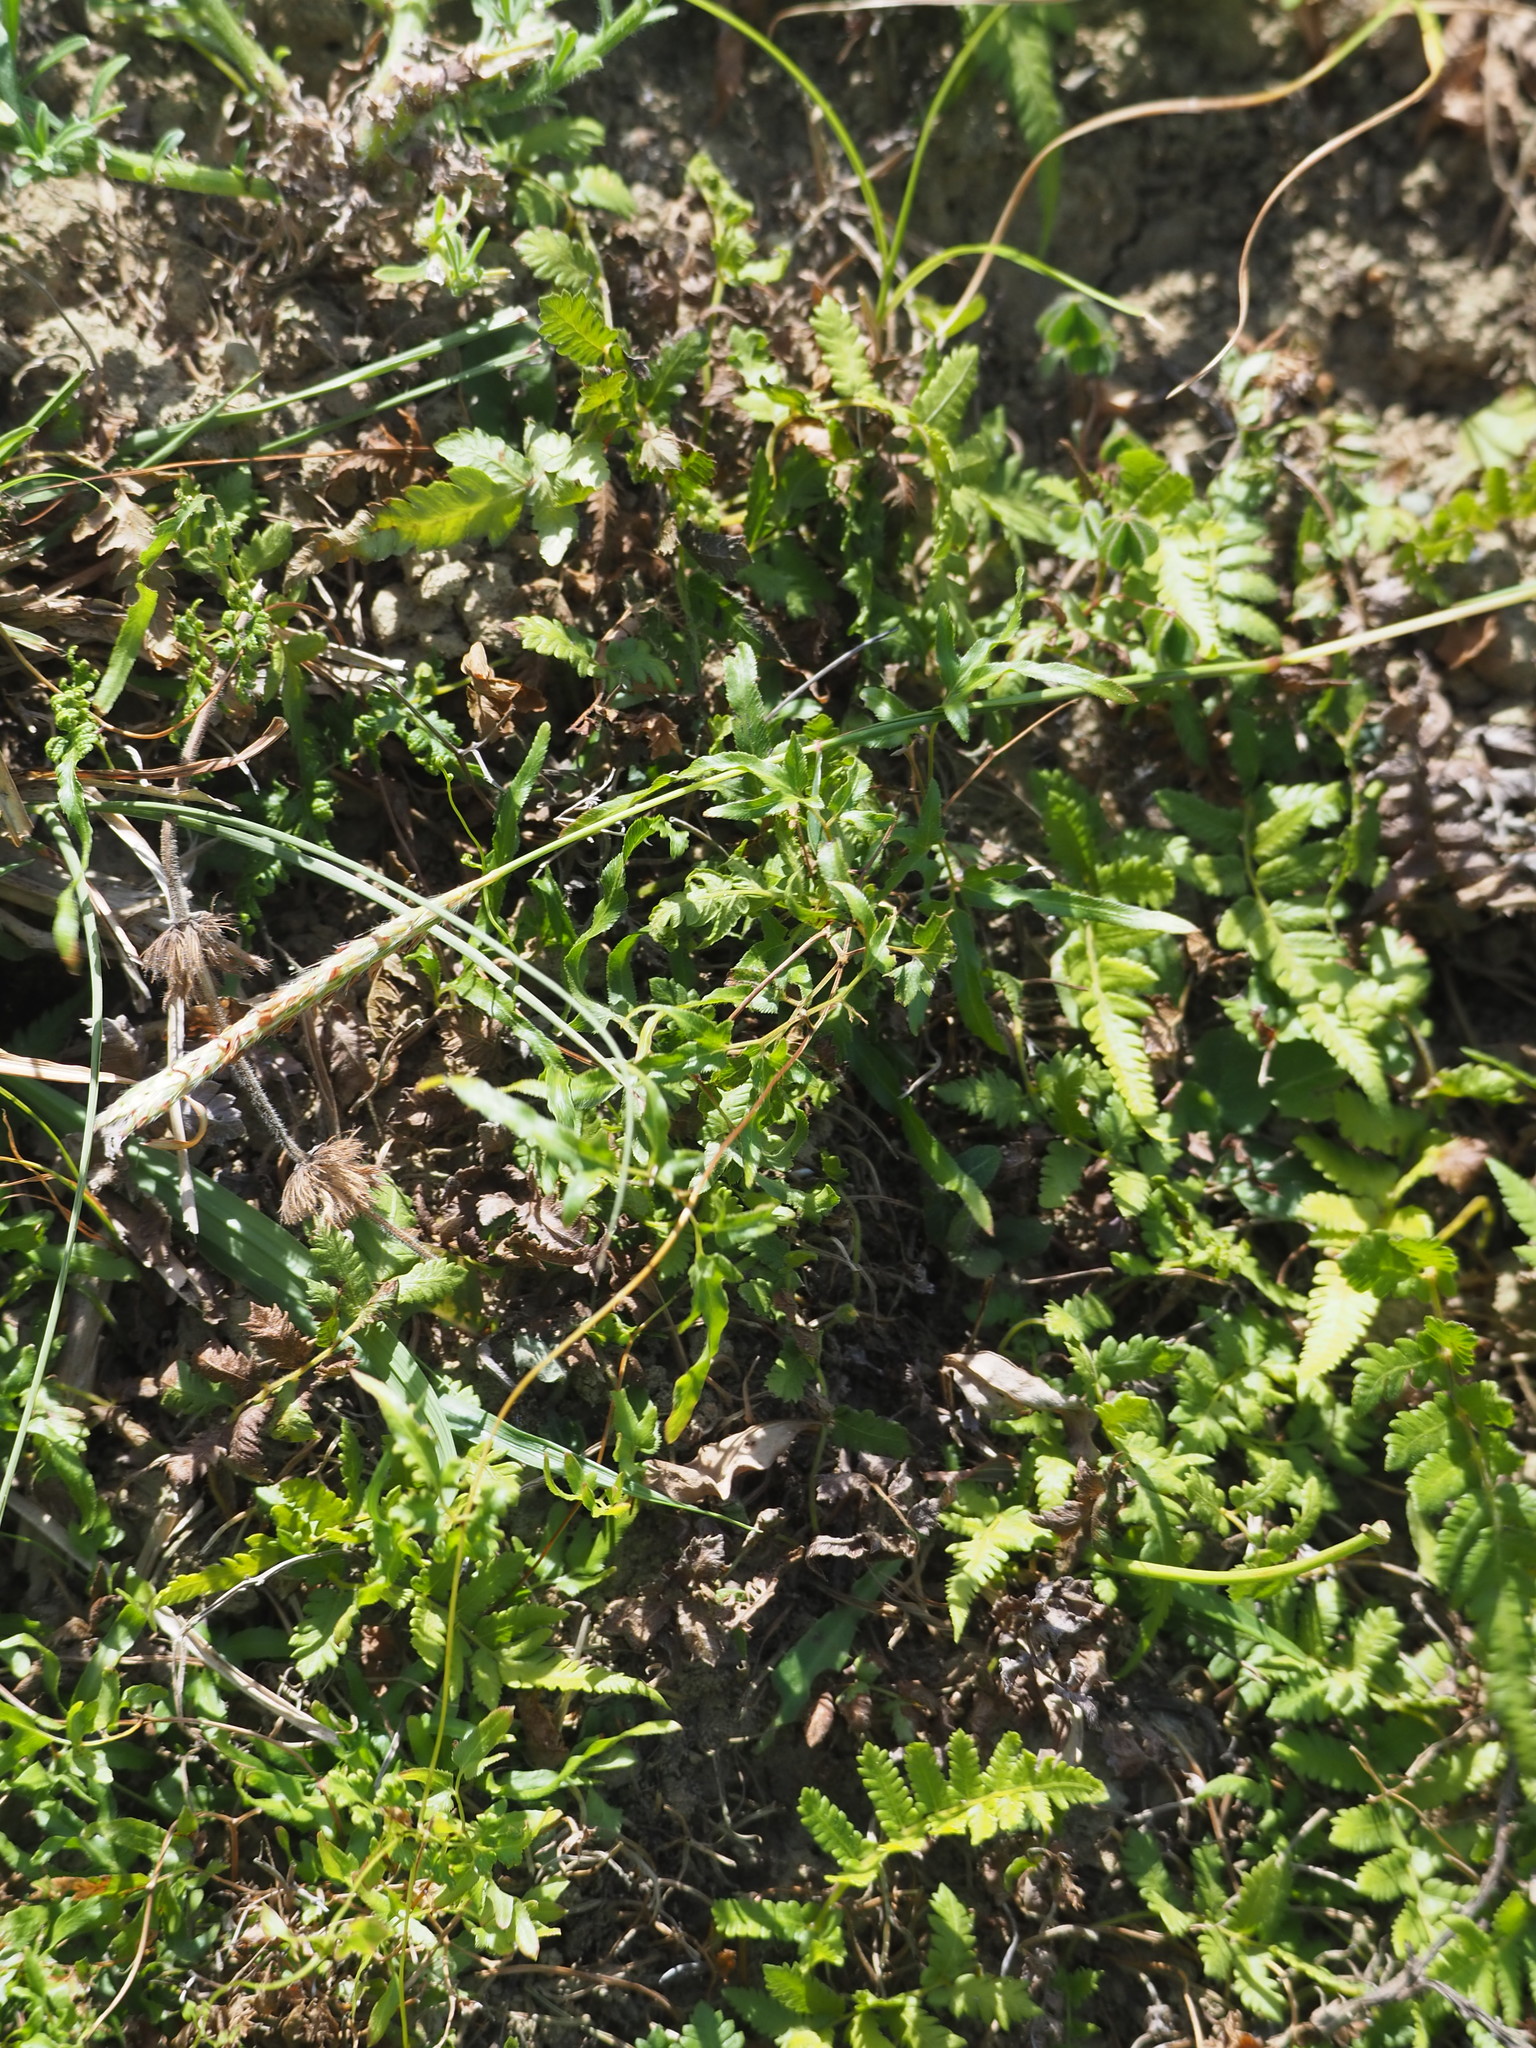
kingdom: Plantae
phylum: Tracheophyta
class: Polypodiopsida
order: Schizaeales
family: Lygodiaceae
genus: Lygodium
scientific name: Lygodium japonicum
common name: Japanese climbing fern
